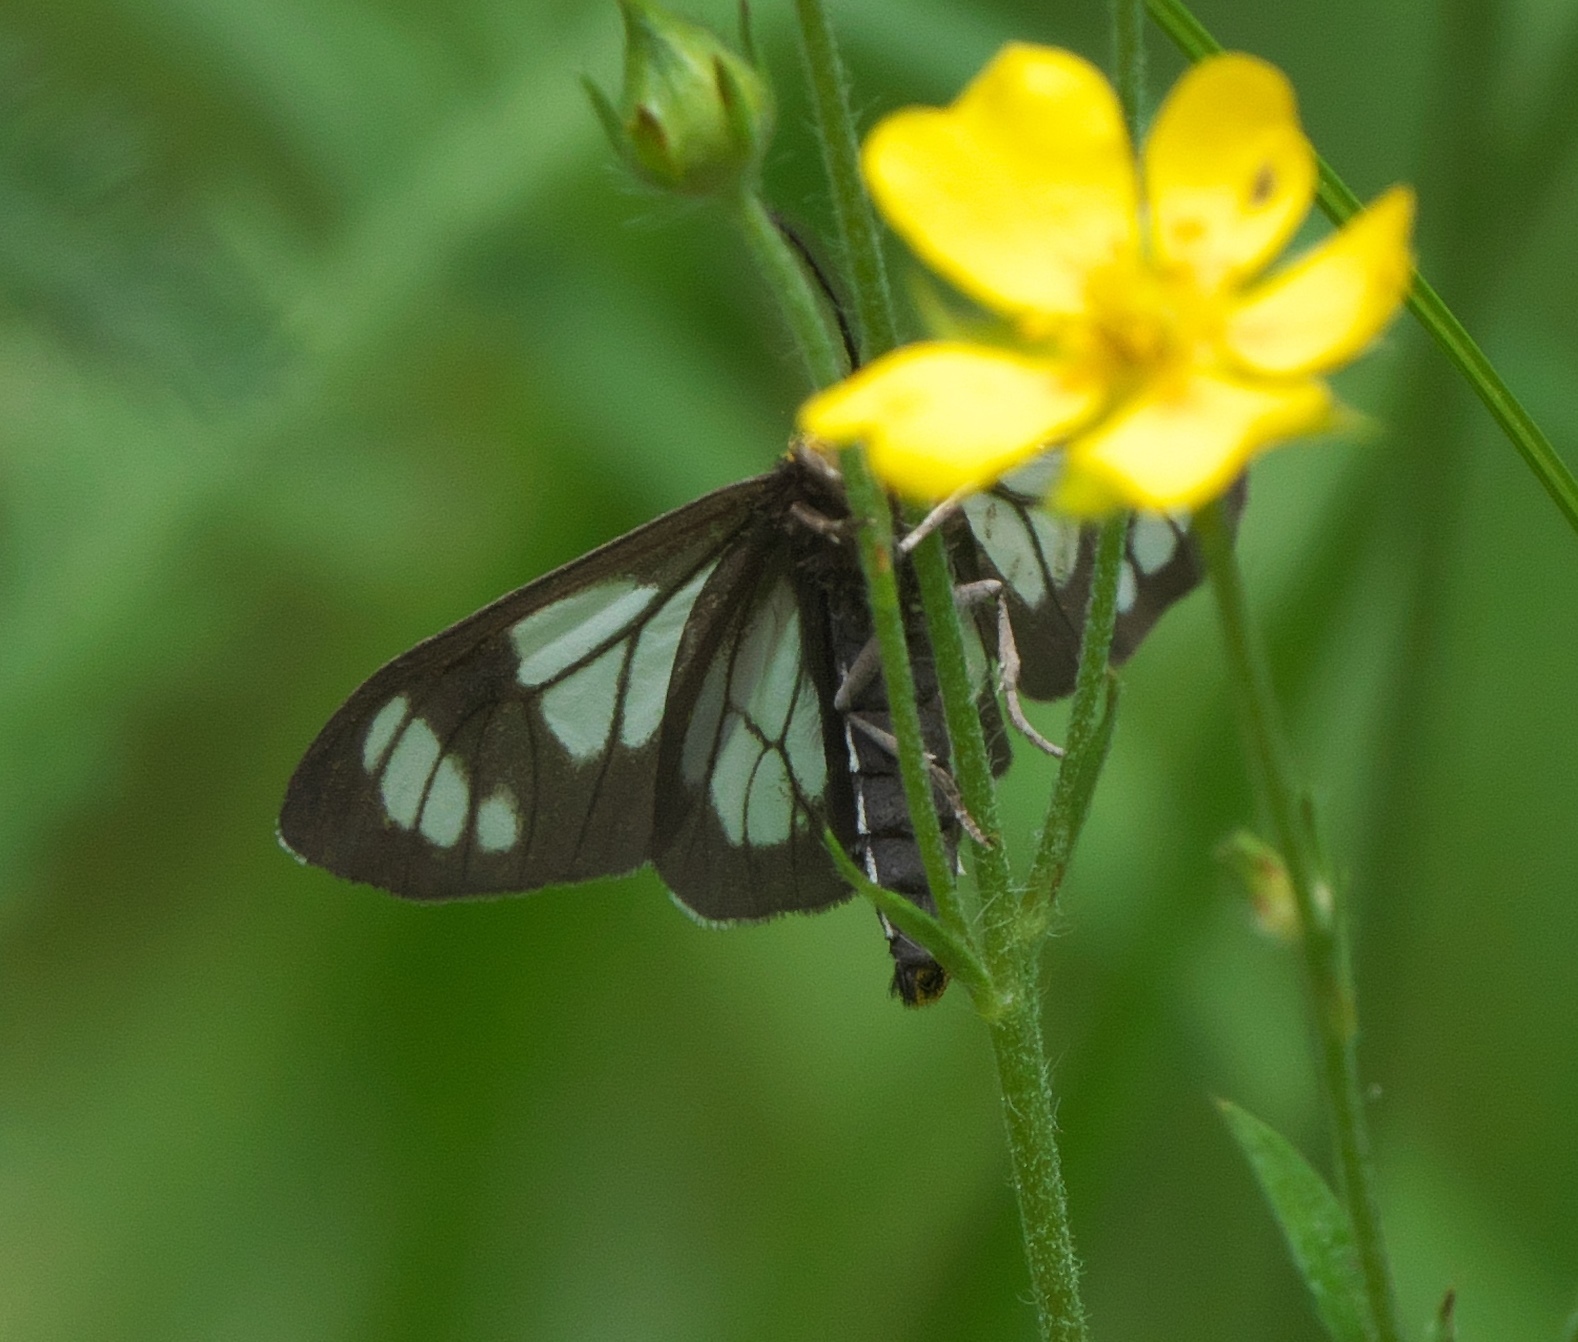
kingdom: Animalia
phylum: Arthropoda
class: Insecta
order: Lepidoptera
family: Erebidae
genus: Gnophaela
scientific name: Gnophaela vermiculata
